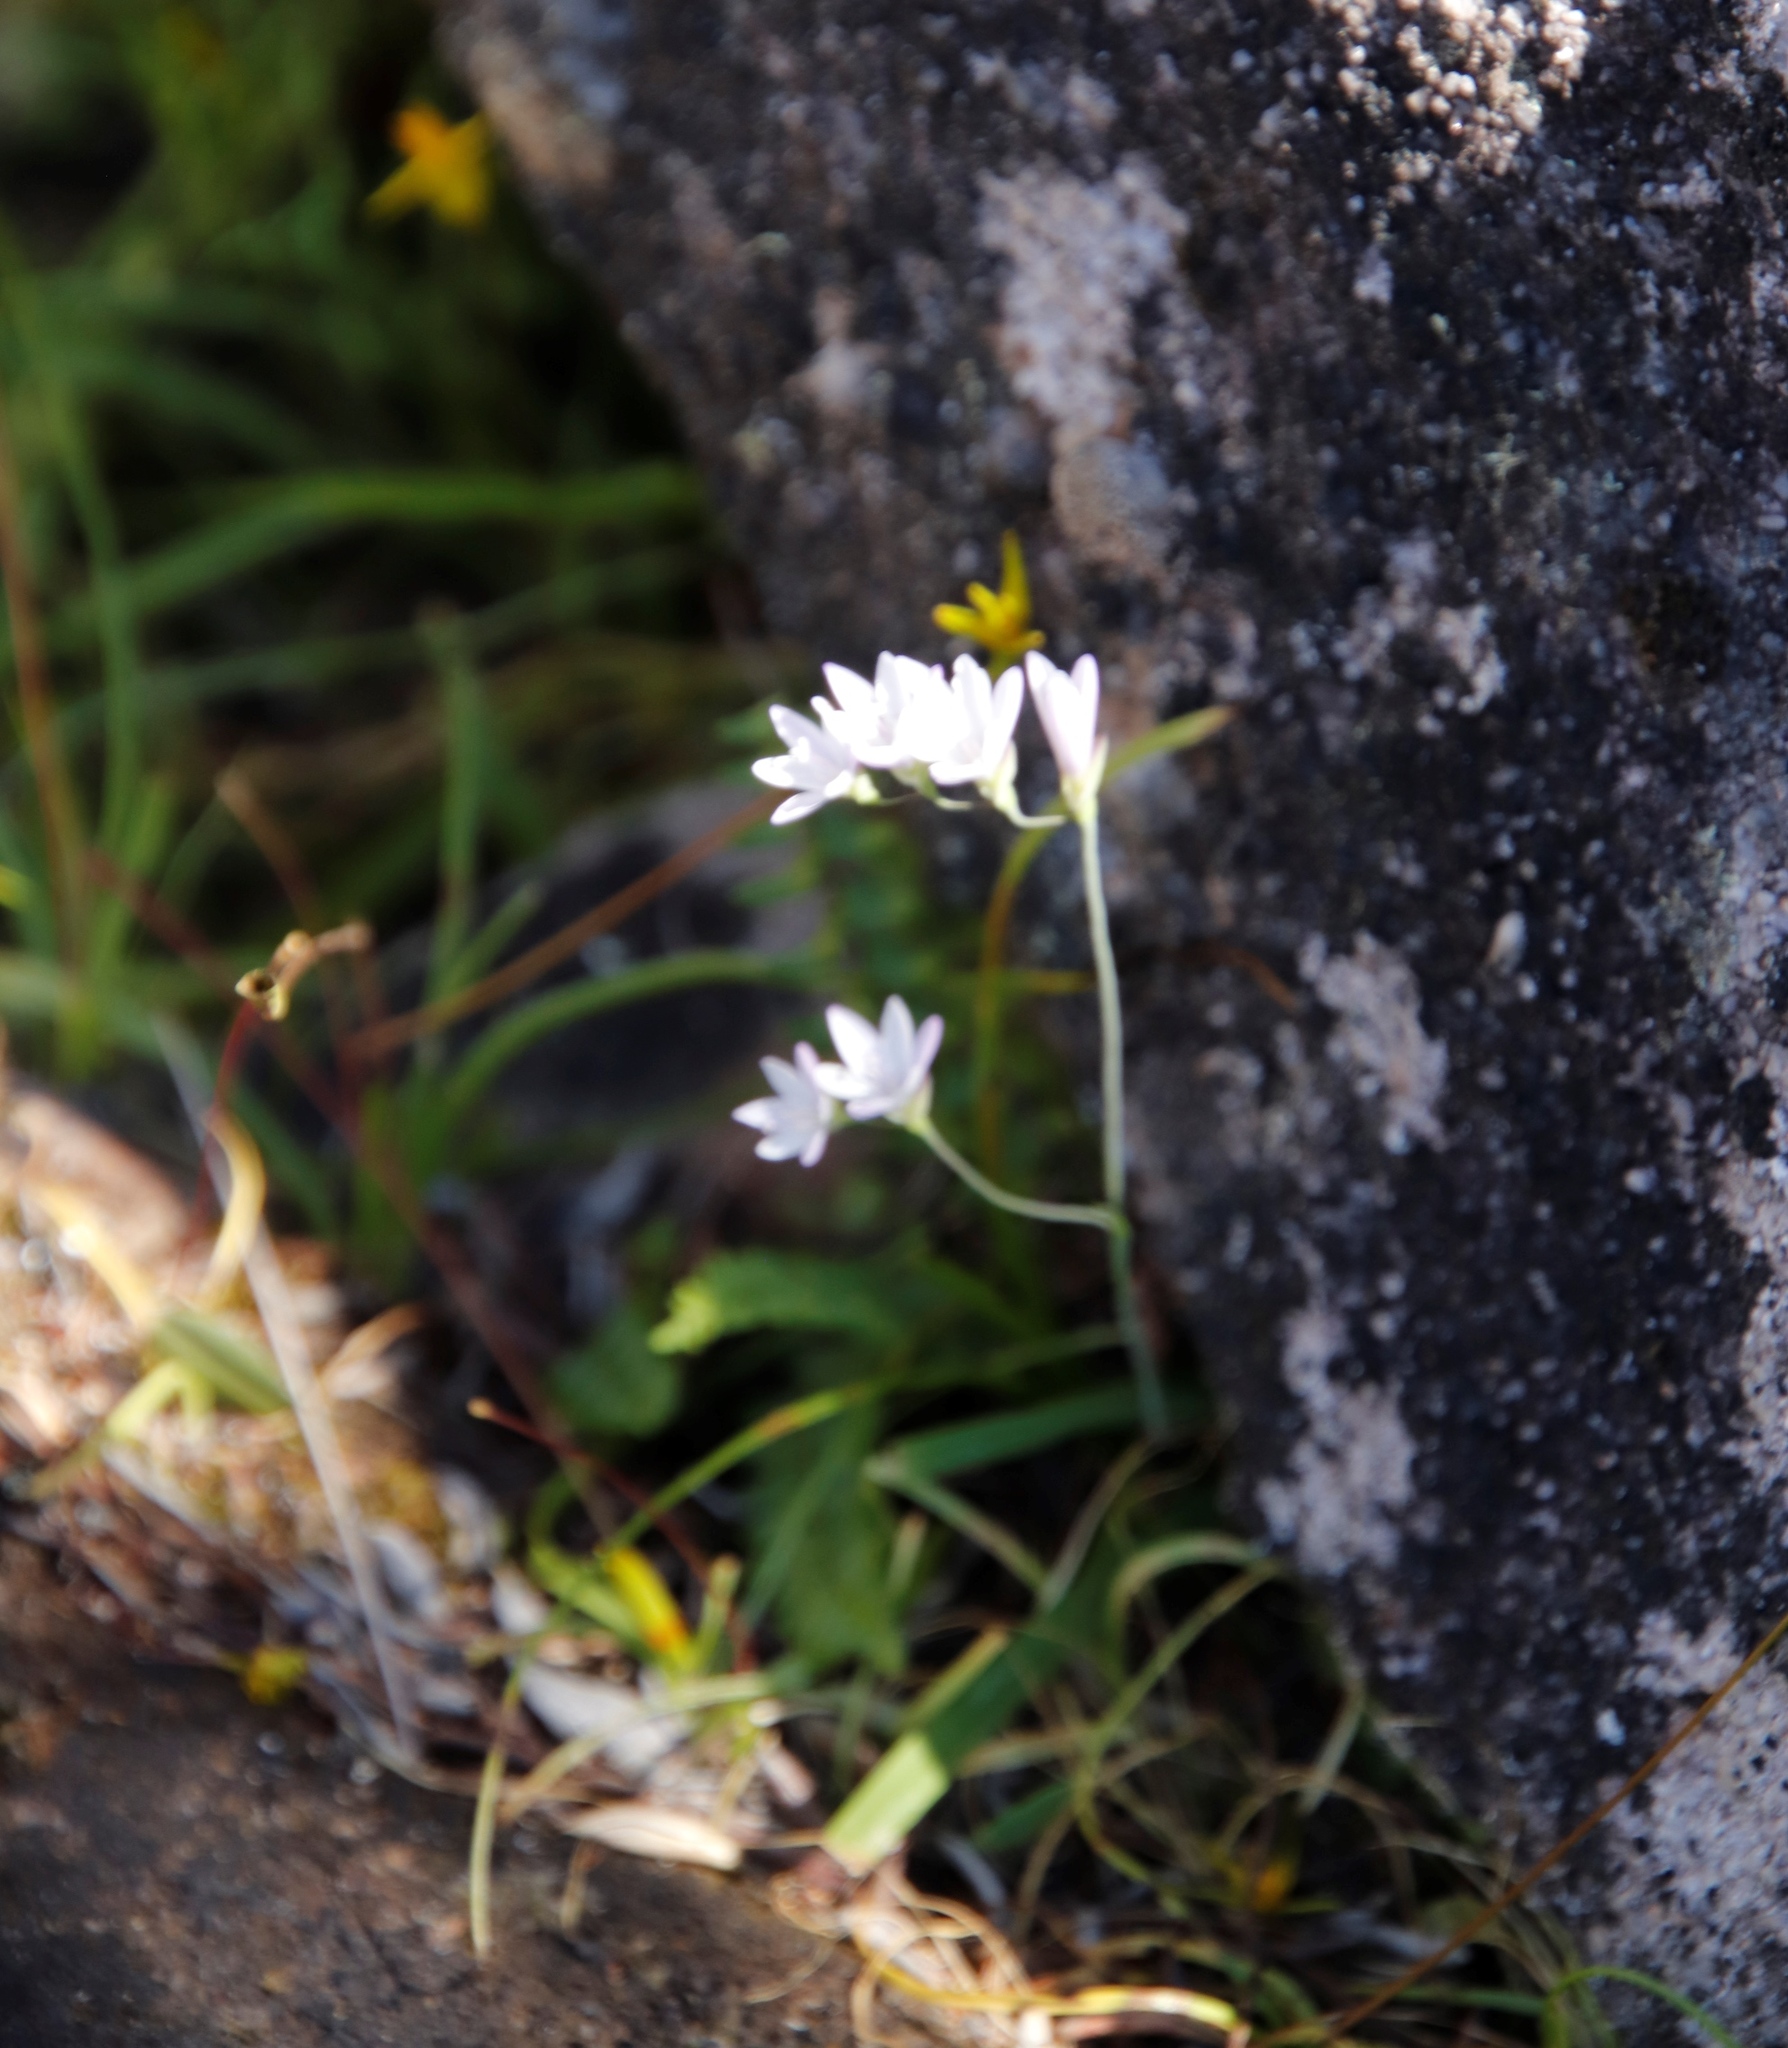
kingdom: Plantae
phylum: Tracheophyta
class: Liliopsida
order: Asparagales
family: Iridaceae
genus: Geissorhiza
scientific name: Geissorhiza inaequalis
